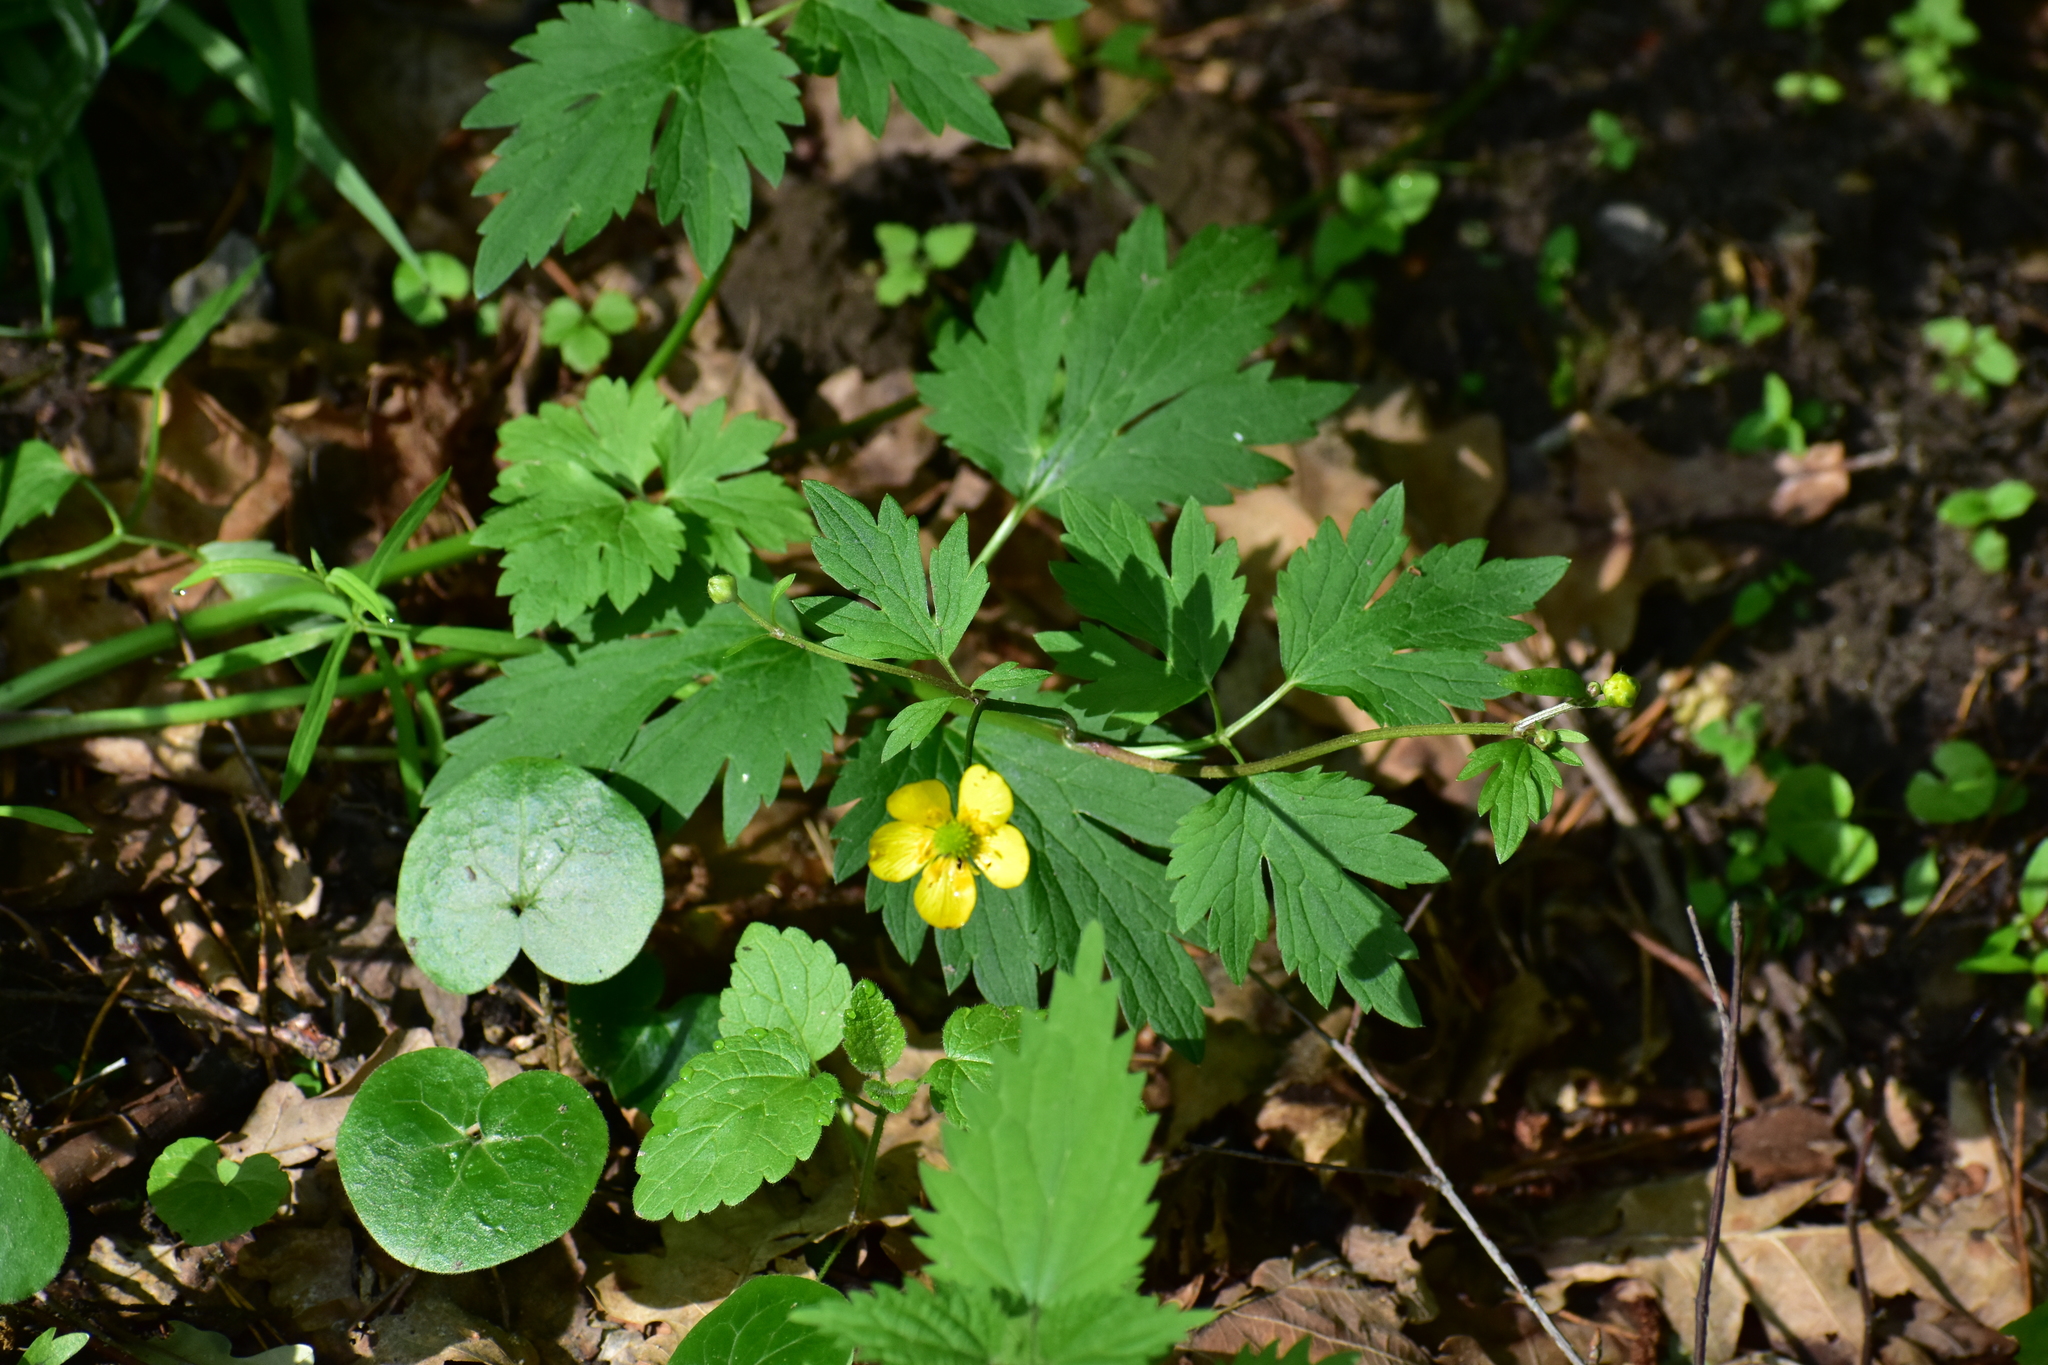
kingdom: Plantae
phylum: Tracheophyta
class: Magnoliopsida
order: Ranunculales
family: Ranunculaceae
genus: Ranunculus
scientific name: Ranunculus repens
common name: Creeping buttercup
